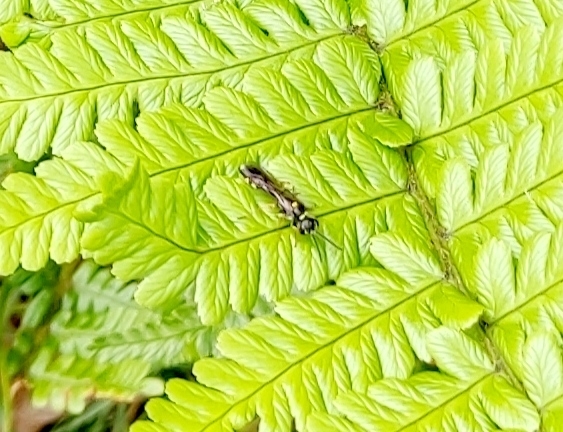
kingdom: Animalia
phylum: Arthropoda
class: Insecta
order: Hymenoptera
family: Crabronidae
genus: Mellinus
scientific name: Mellinus arvensis
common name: Field digger wasp
